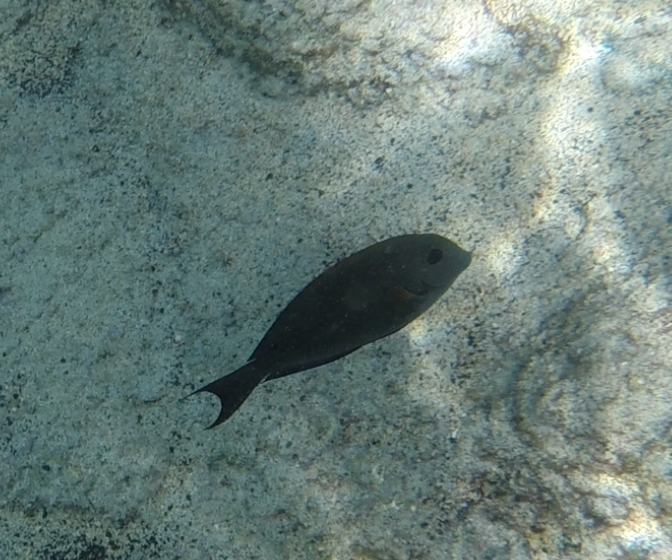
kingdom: Animalia
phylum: Chordata
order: Perciformes
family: Acanthuridae
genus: Acanthurus
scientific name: Acanthurus nigrofuscus
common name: Blackspot surgeonfish
